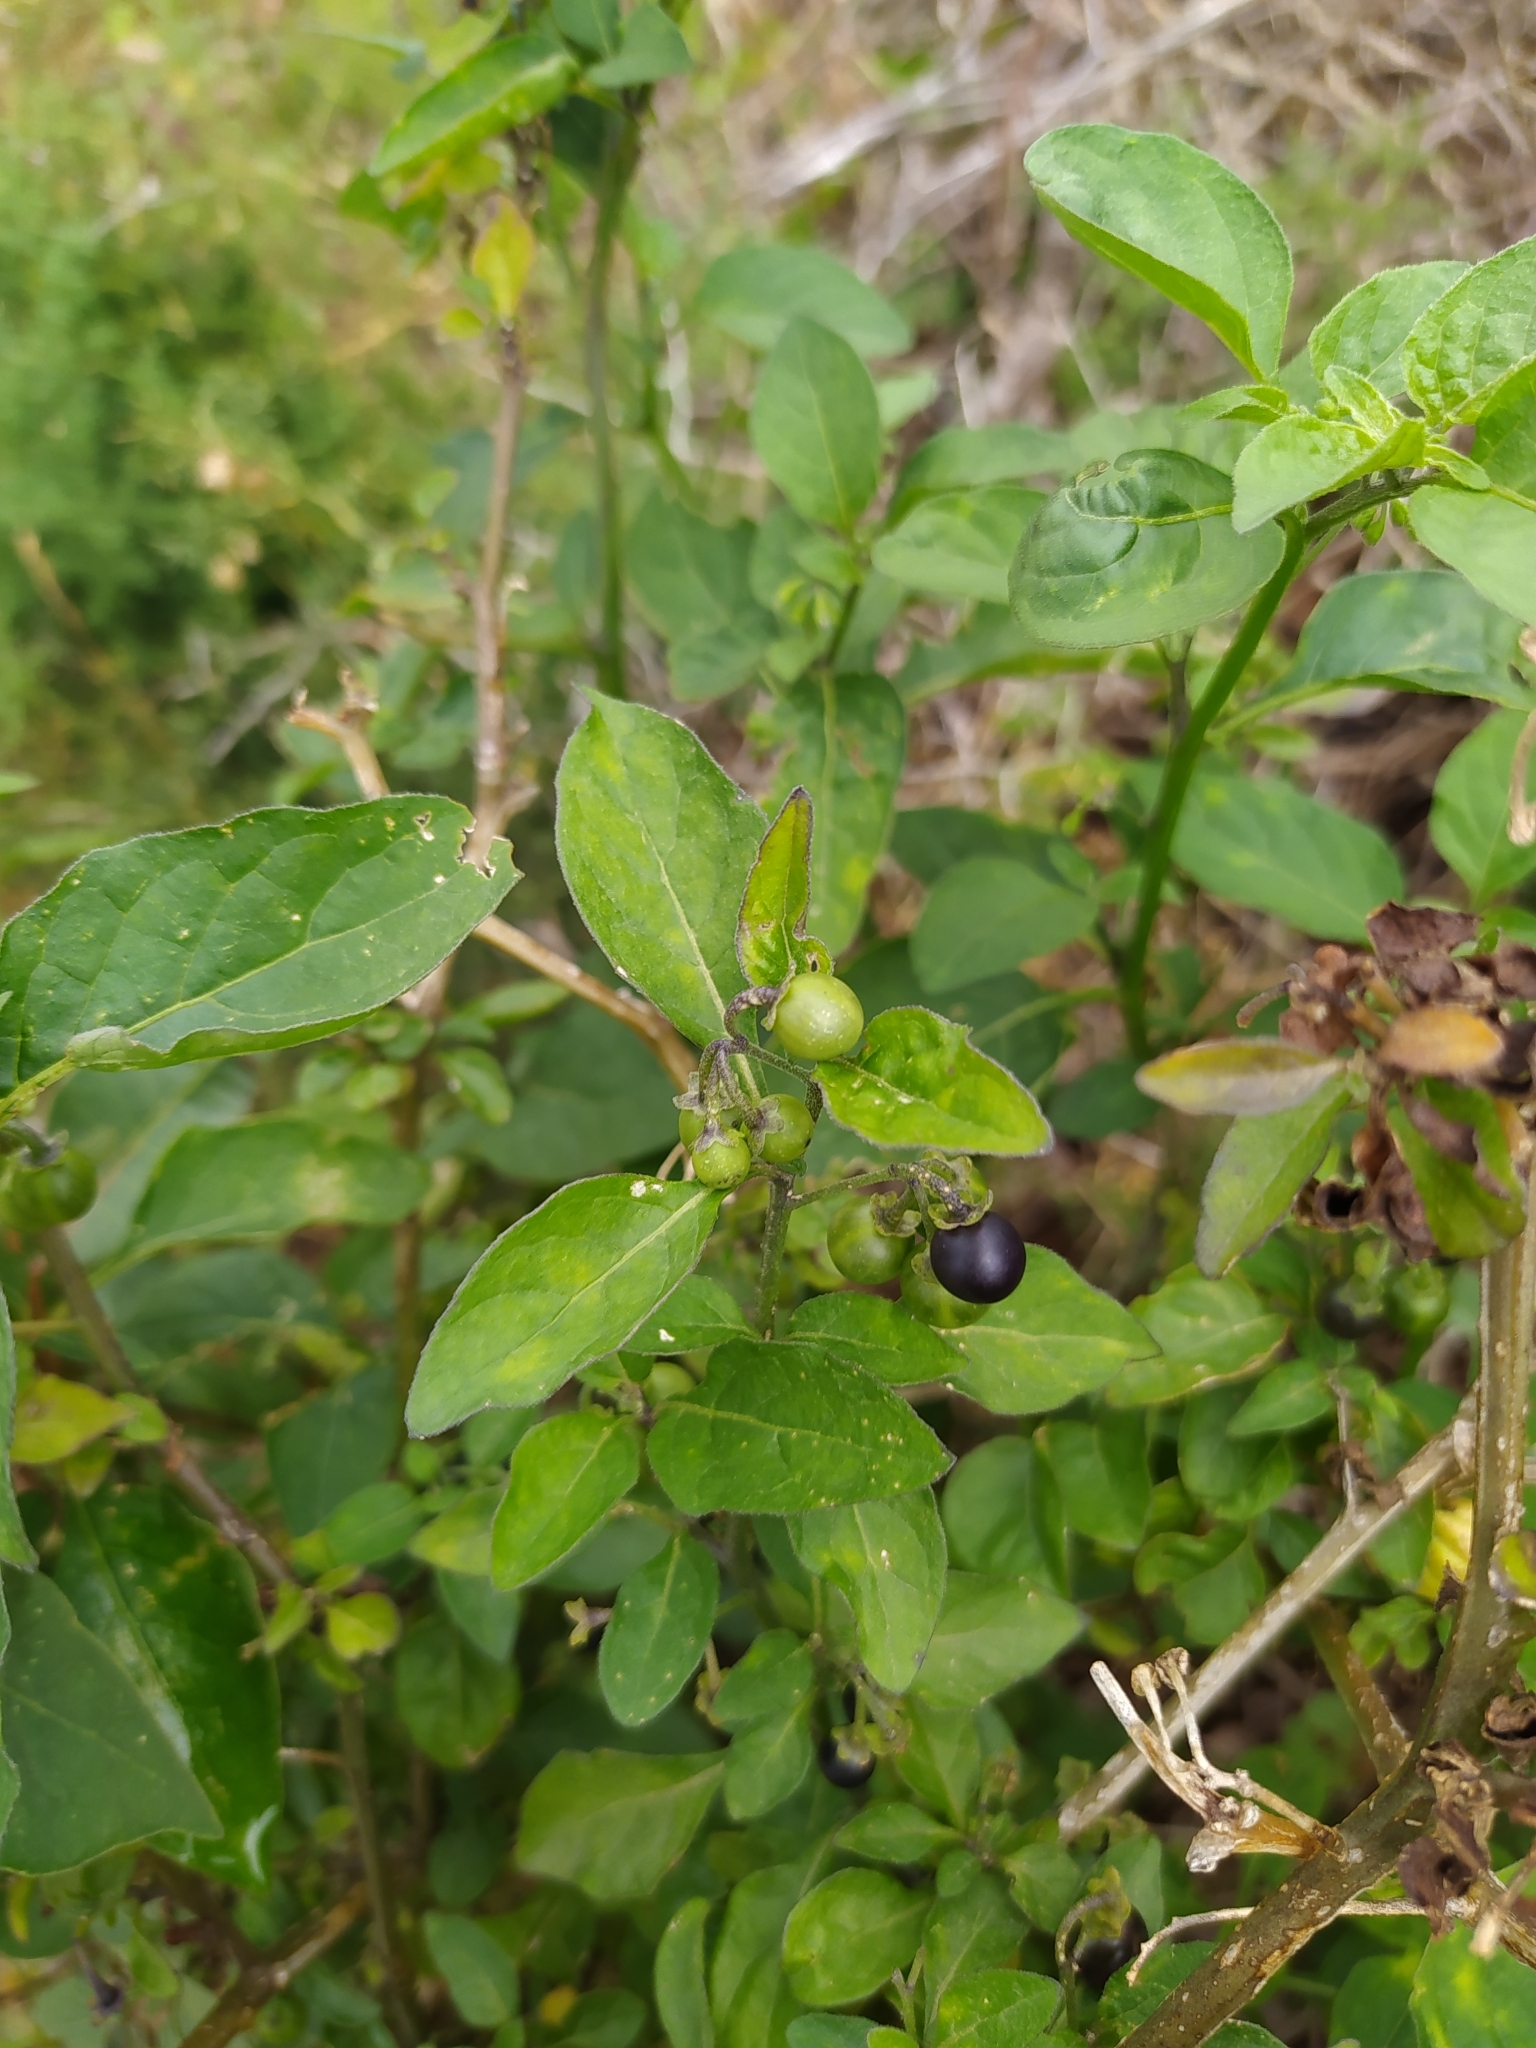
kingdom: Plantae
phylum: Tracheophyta
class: Magnoliopsida
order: Solanales
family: Solanaceae
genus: Solanum
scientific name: Solanum nigrum
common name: Black nightshade
